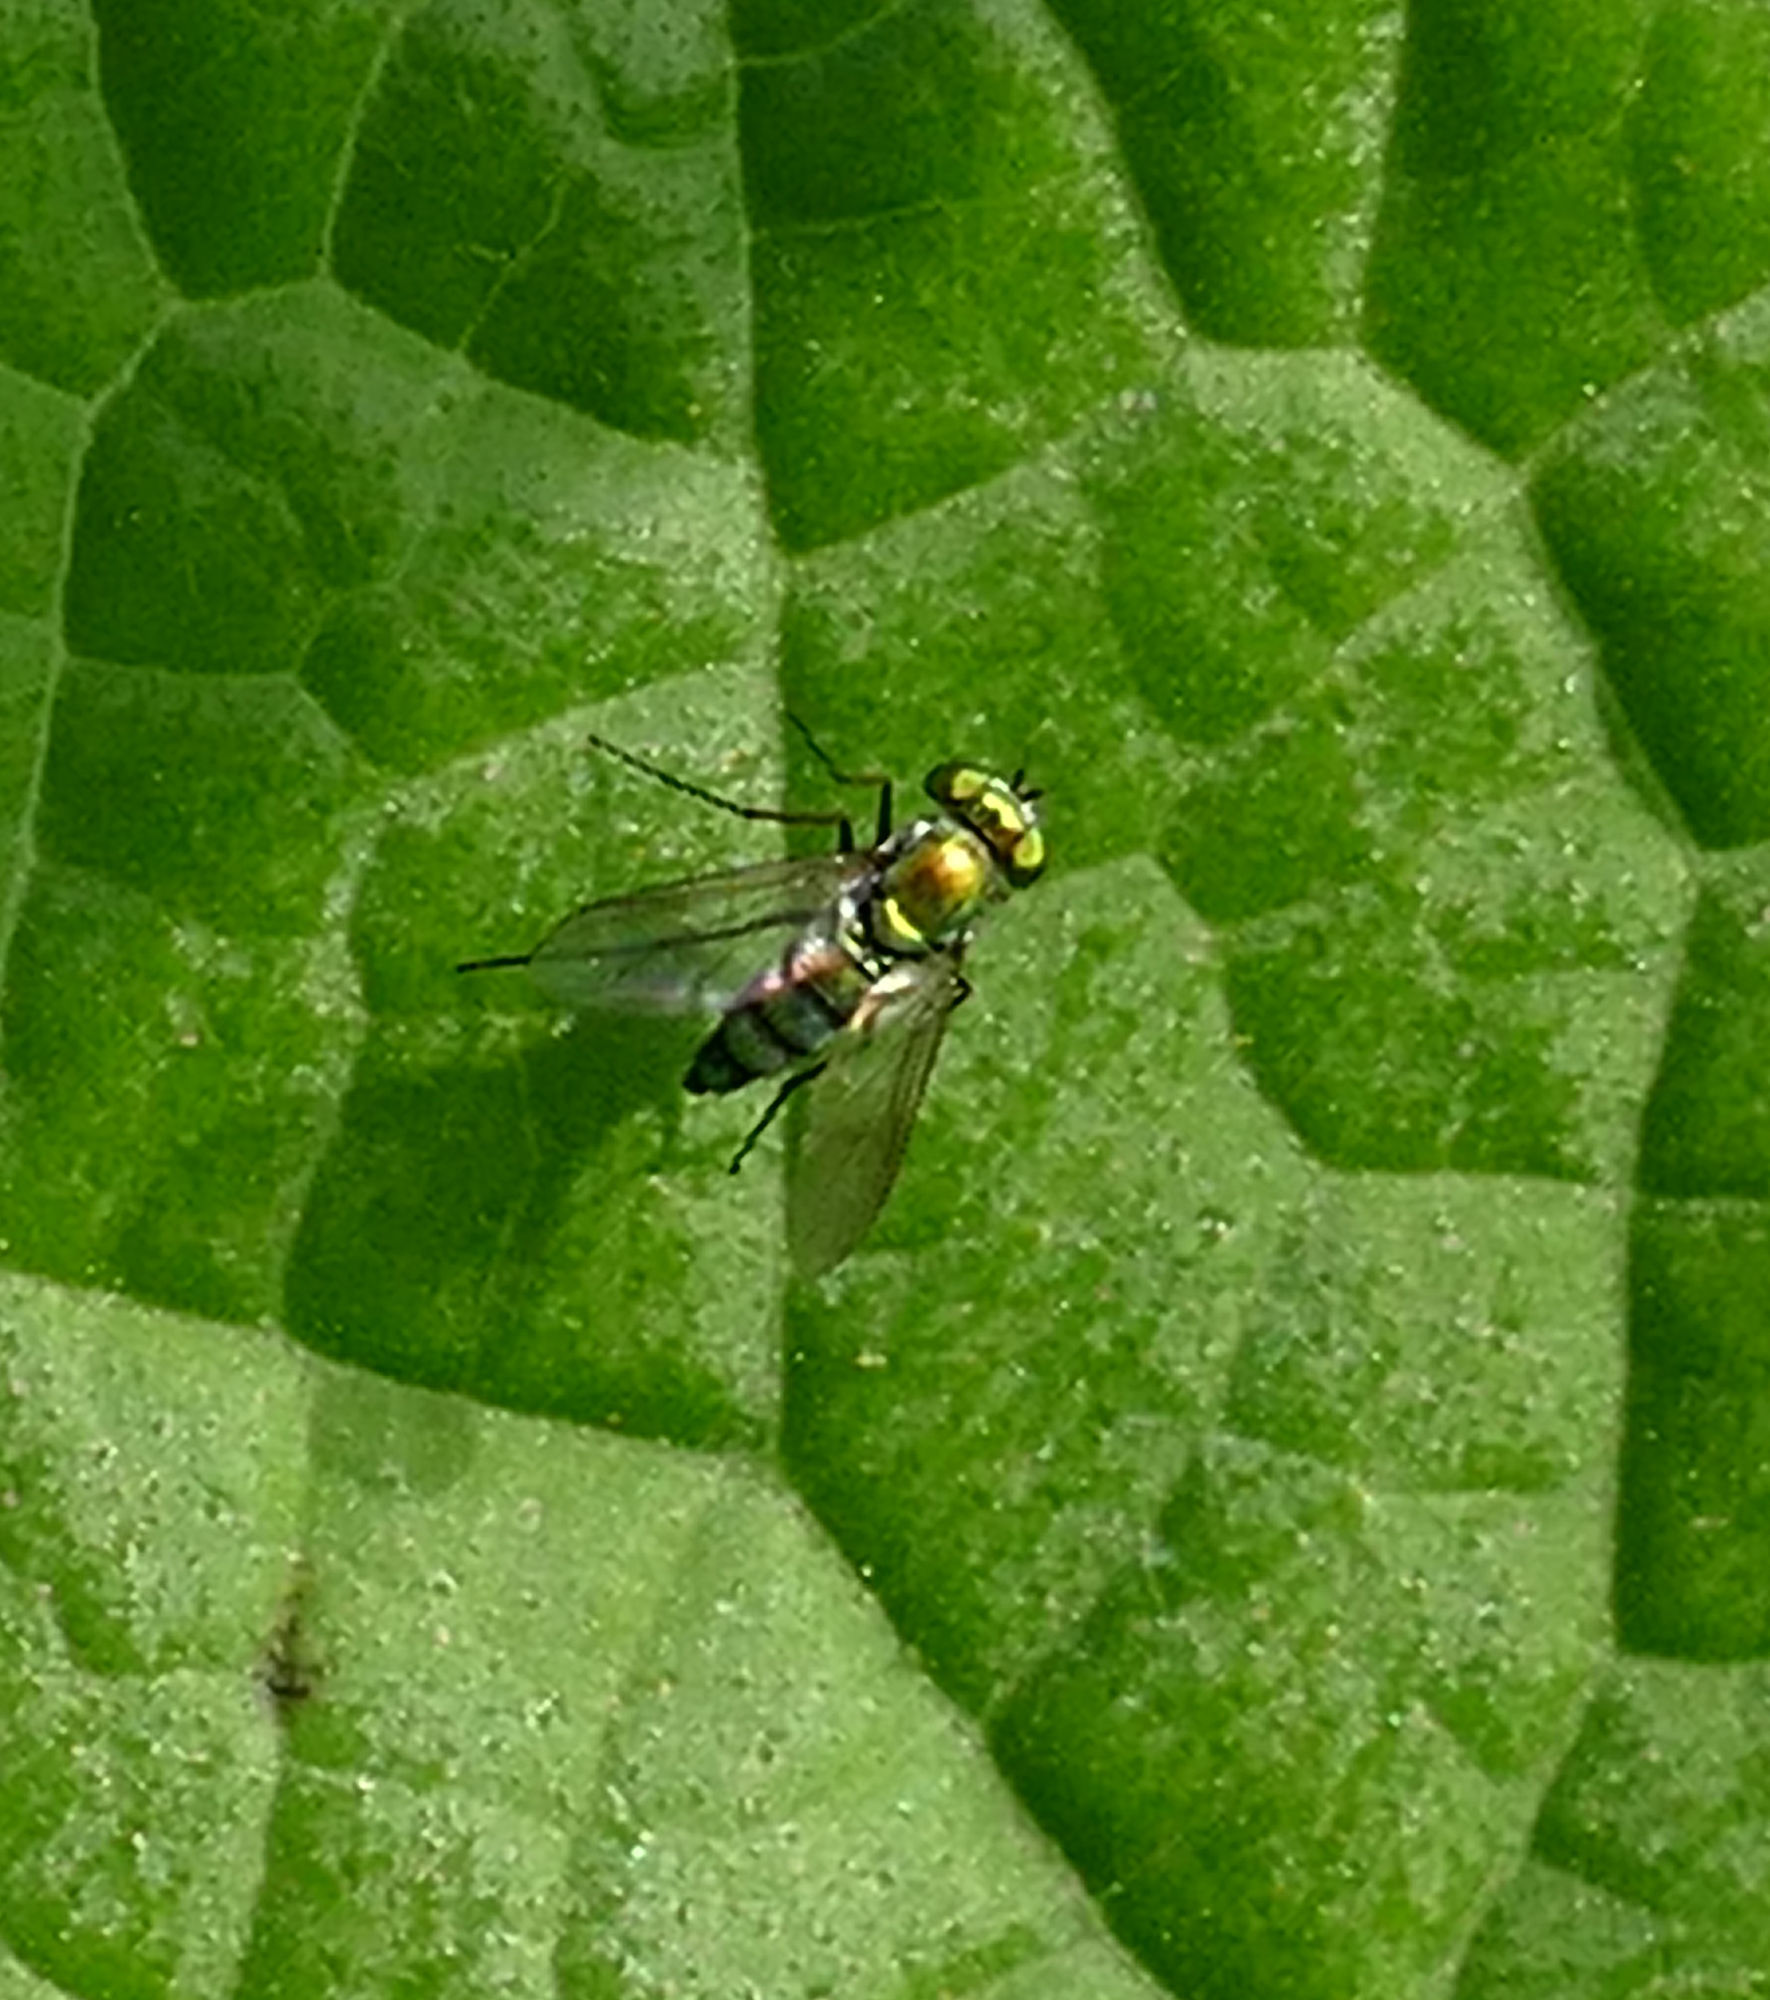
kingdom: Animalia
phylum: Arthropoda
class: Insecta
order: Diptera
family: Dolichopodidae
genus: Condylostylus
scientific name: Condylostylus longicornis
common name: Long-legged fly
